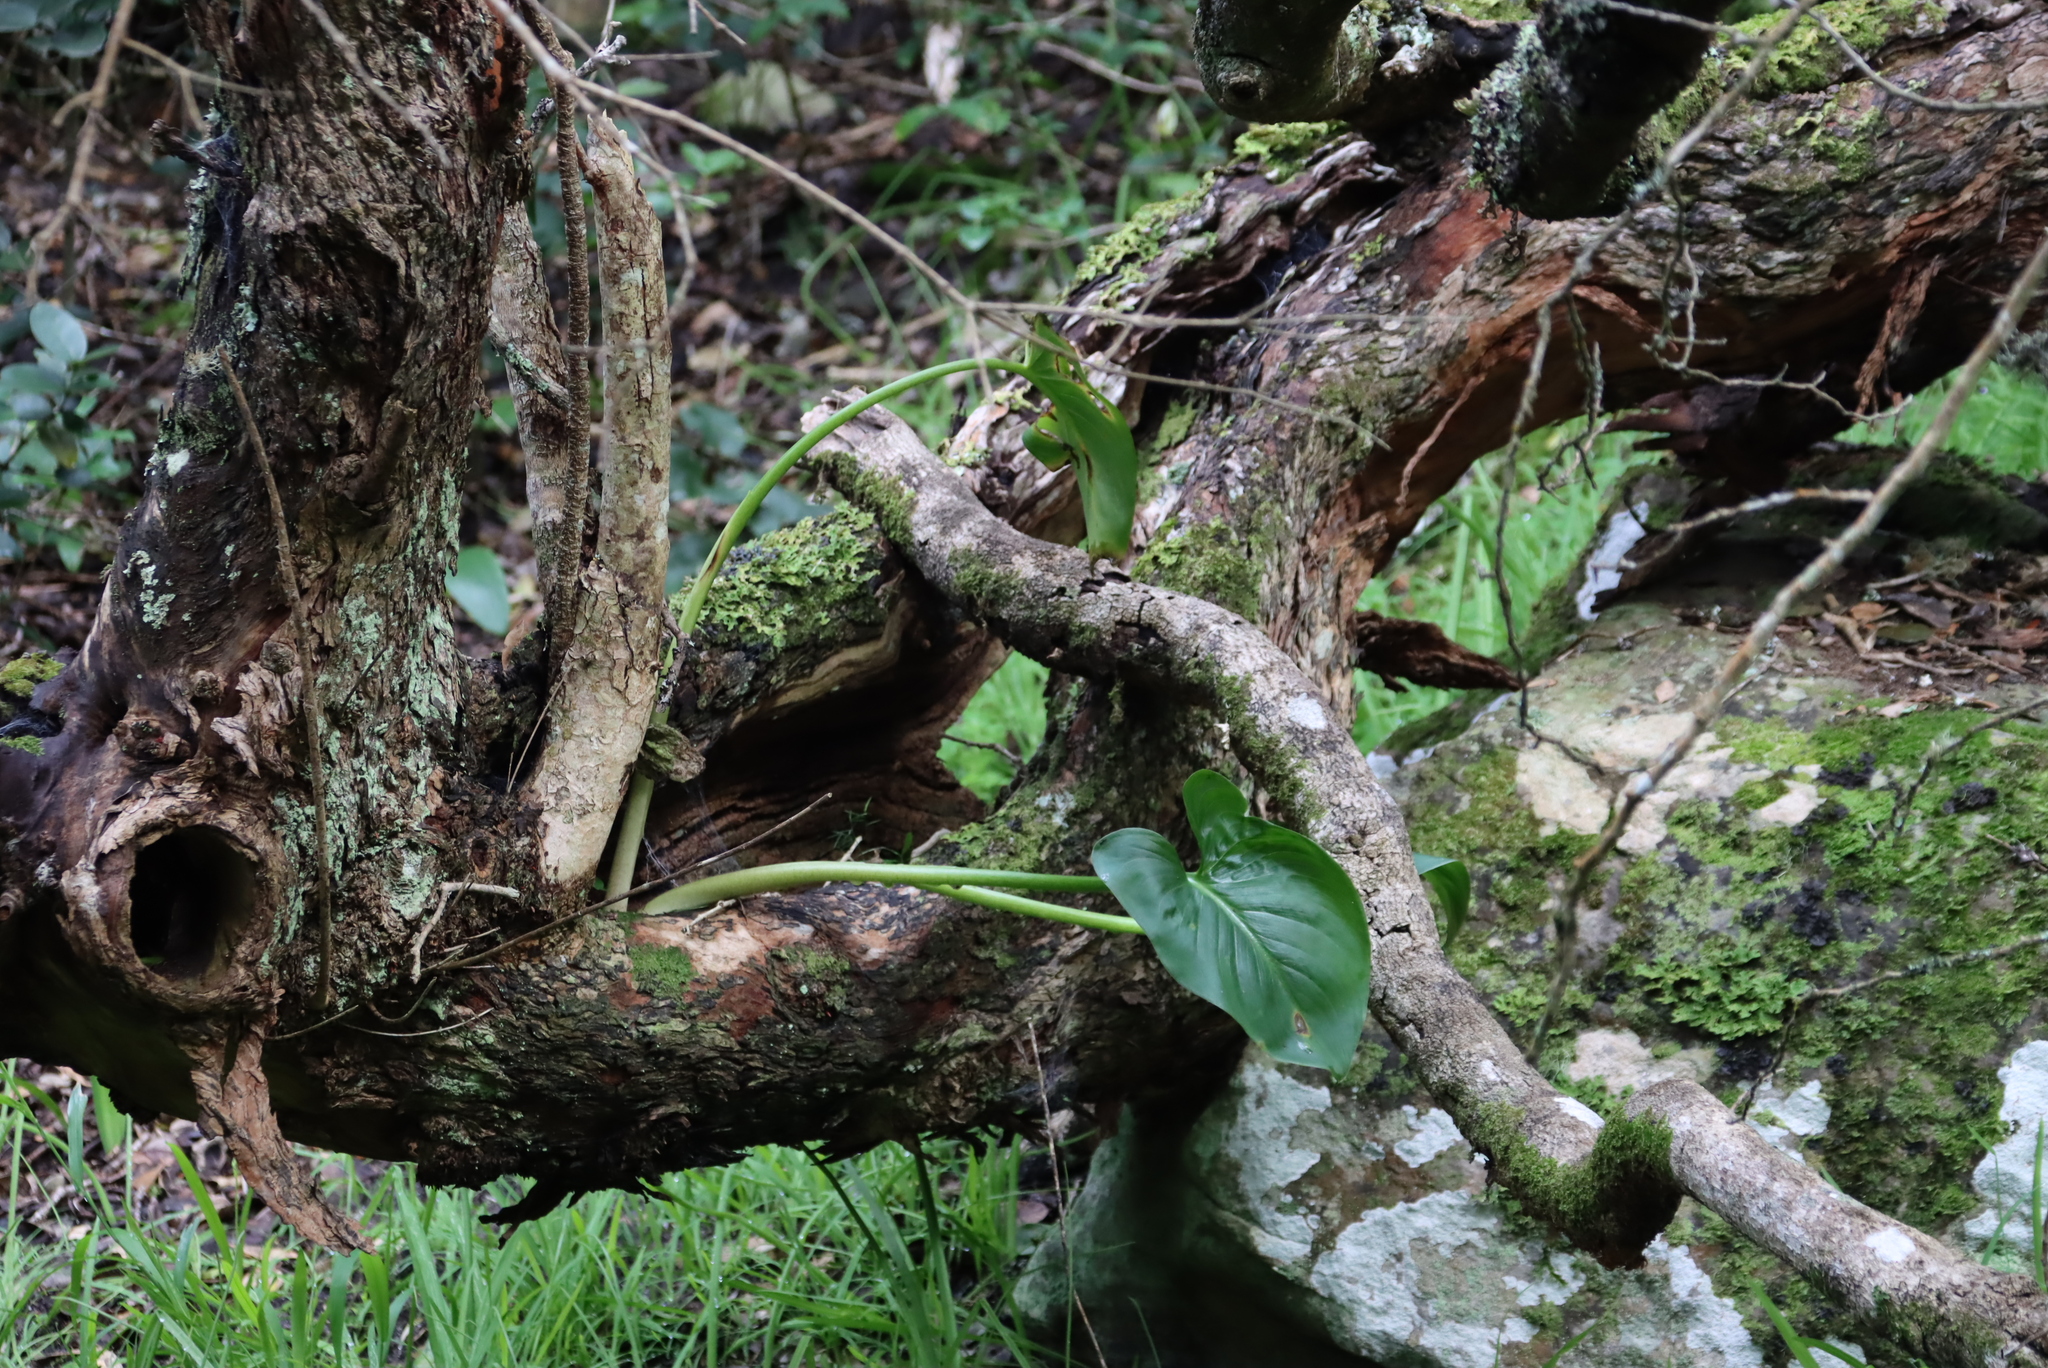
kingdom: Plantae
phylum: Tracheophyta
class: Liliopsida
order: Alismatales
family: Araceae
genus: Zantedeschia
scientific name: Zantedeschia aethiopica
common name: Altar-lily
